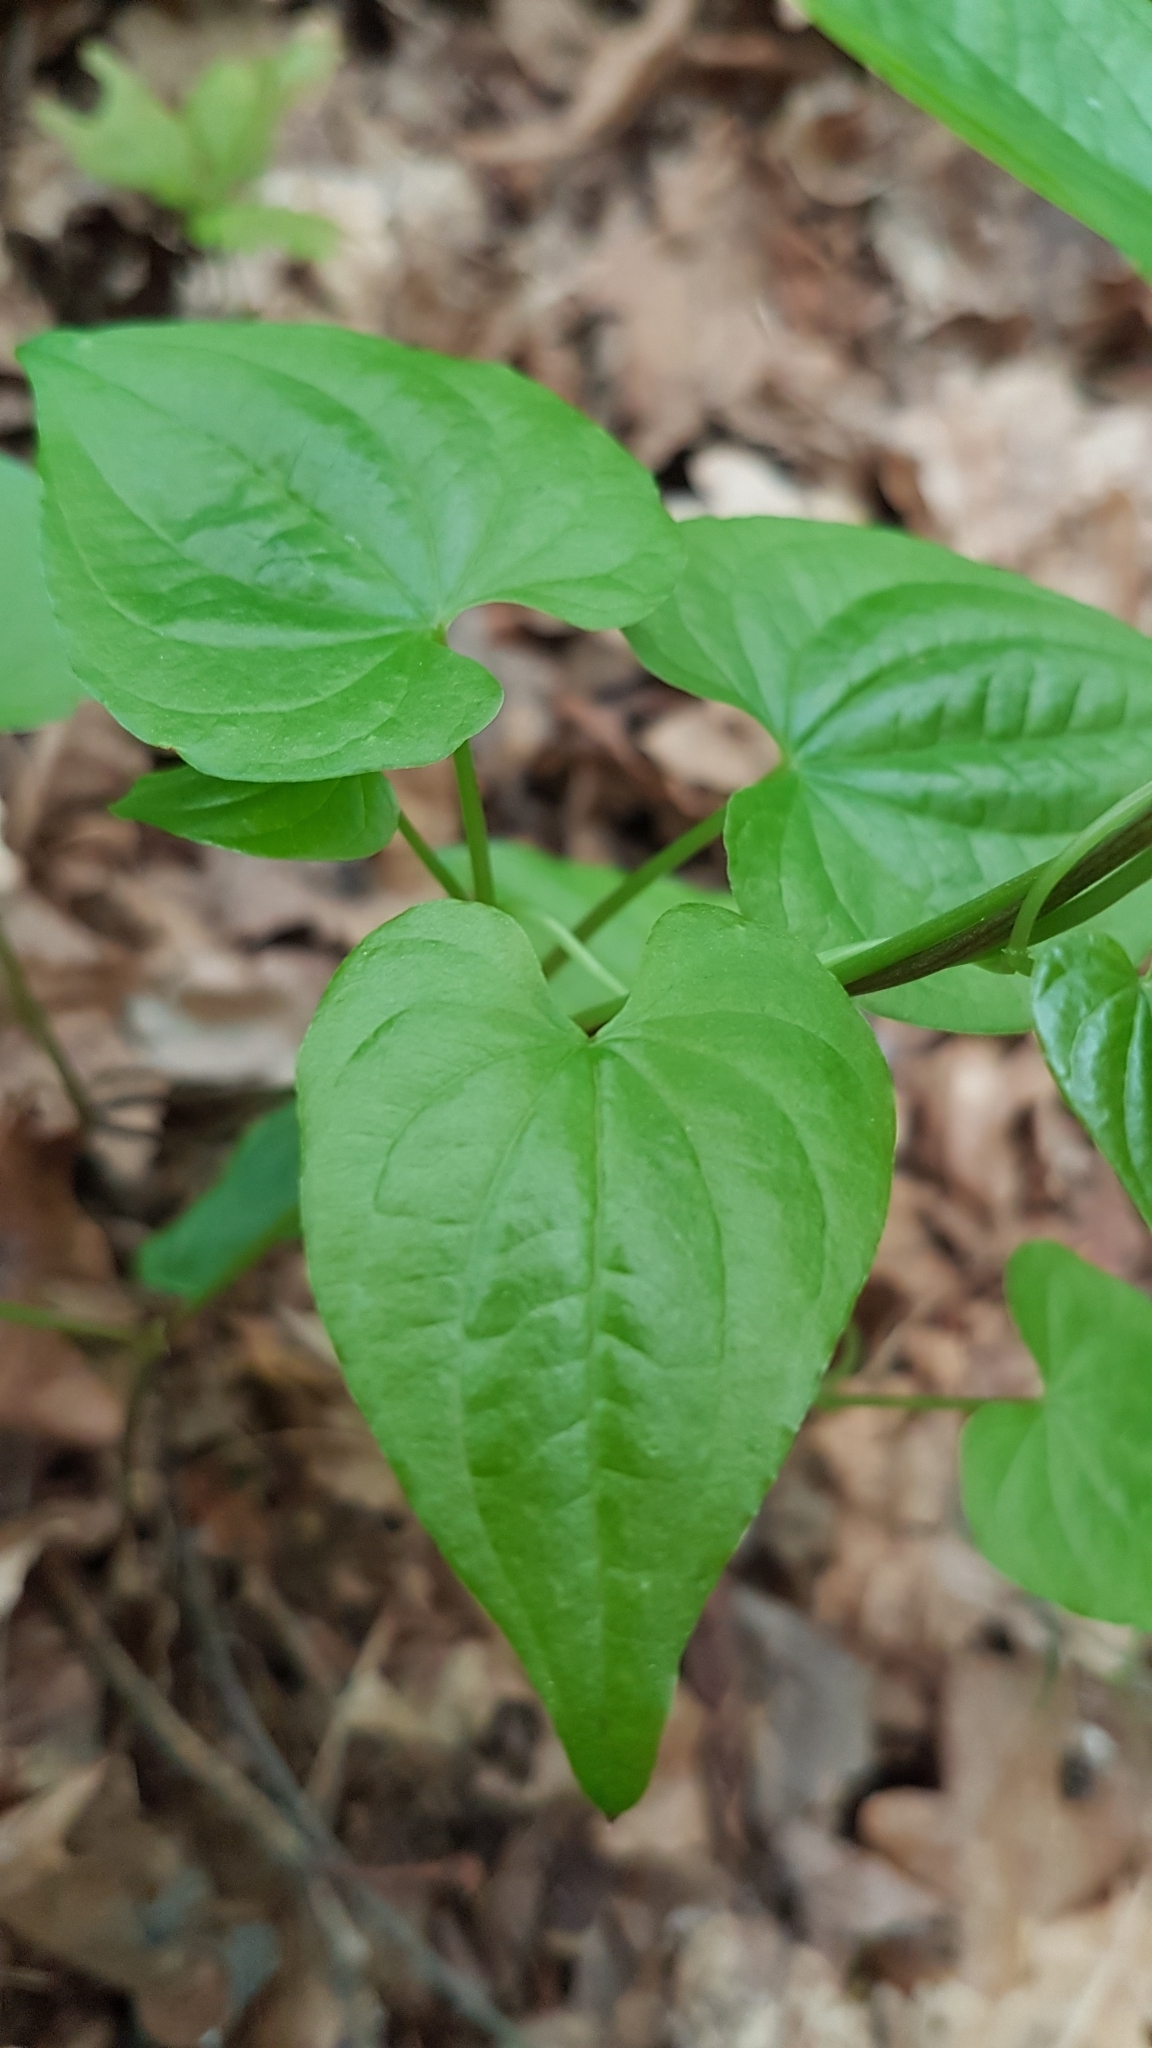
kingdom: Plantae
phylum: Tracheophyta
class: Liliopsida
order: Dioscoreales
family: Dioscoreaceae
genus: Dioscorea
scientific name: Dioscorea communis
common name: Black-bindweed
